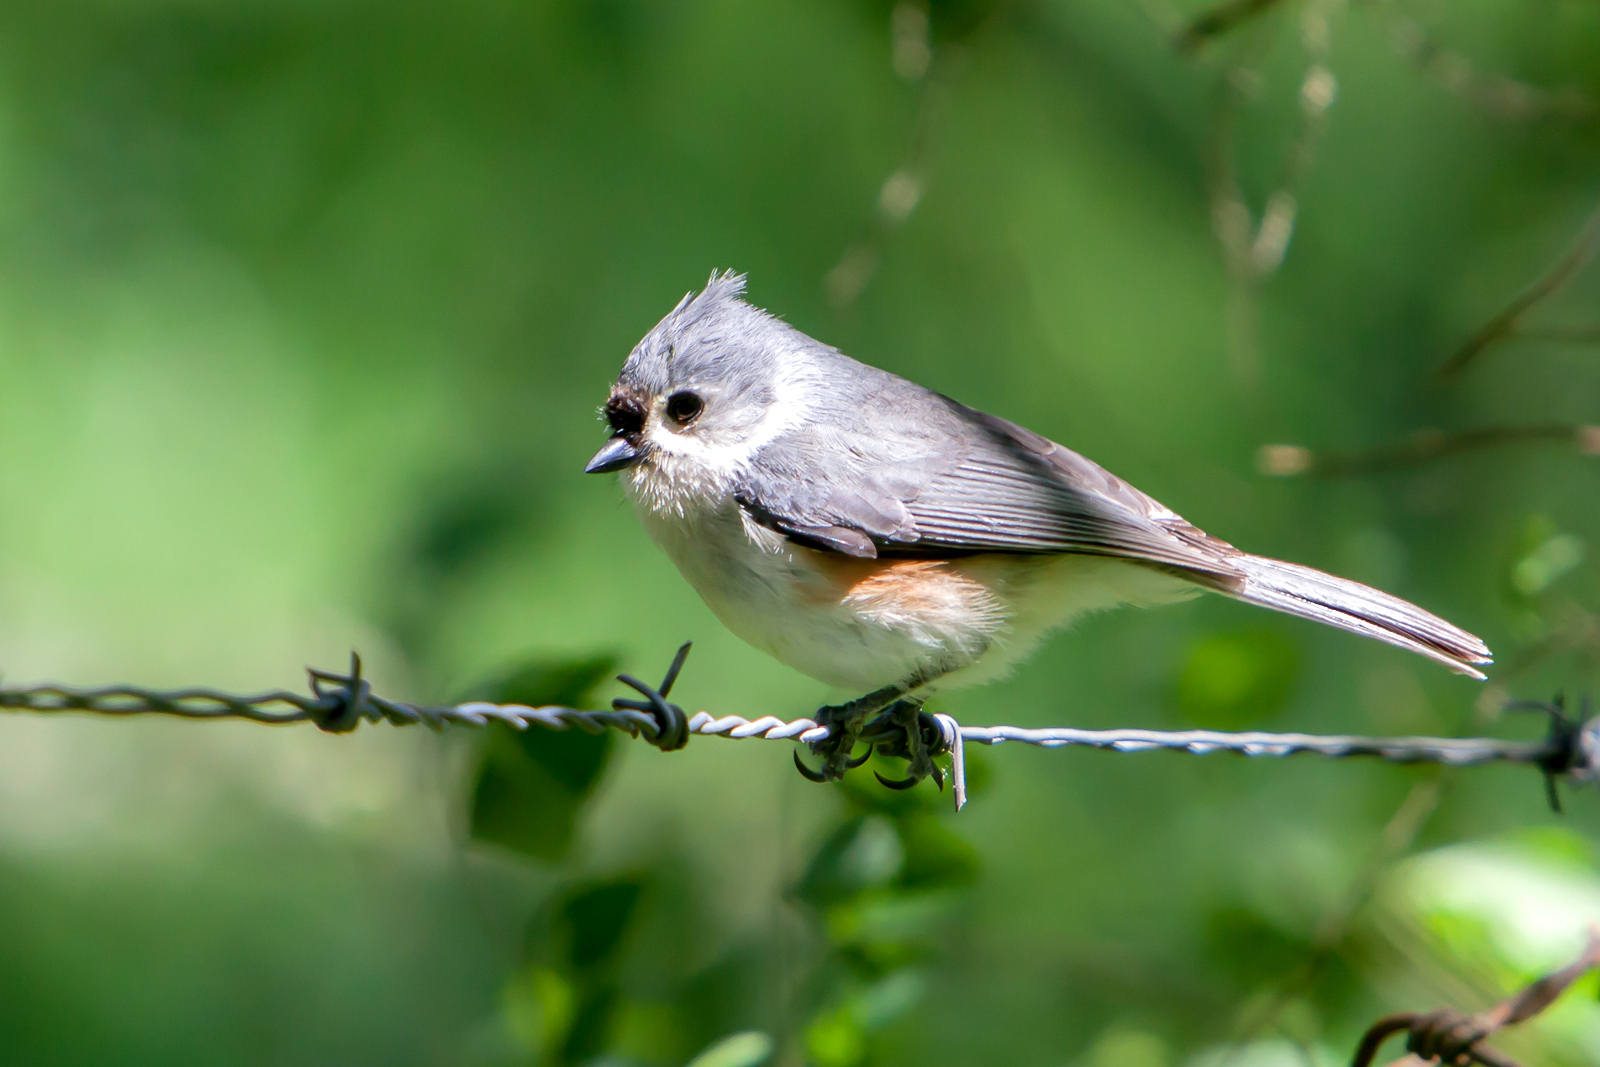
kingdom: Animalia
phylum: Chordata
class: Aves
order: Passeriformes
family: Paridae
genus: Baeolophus
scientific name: Baeolophus bicolor
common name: Tufted titmouse
